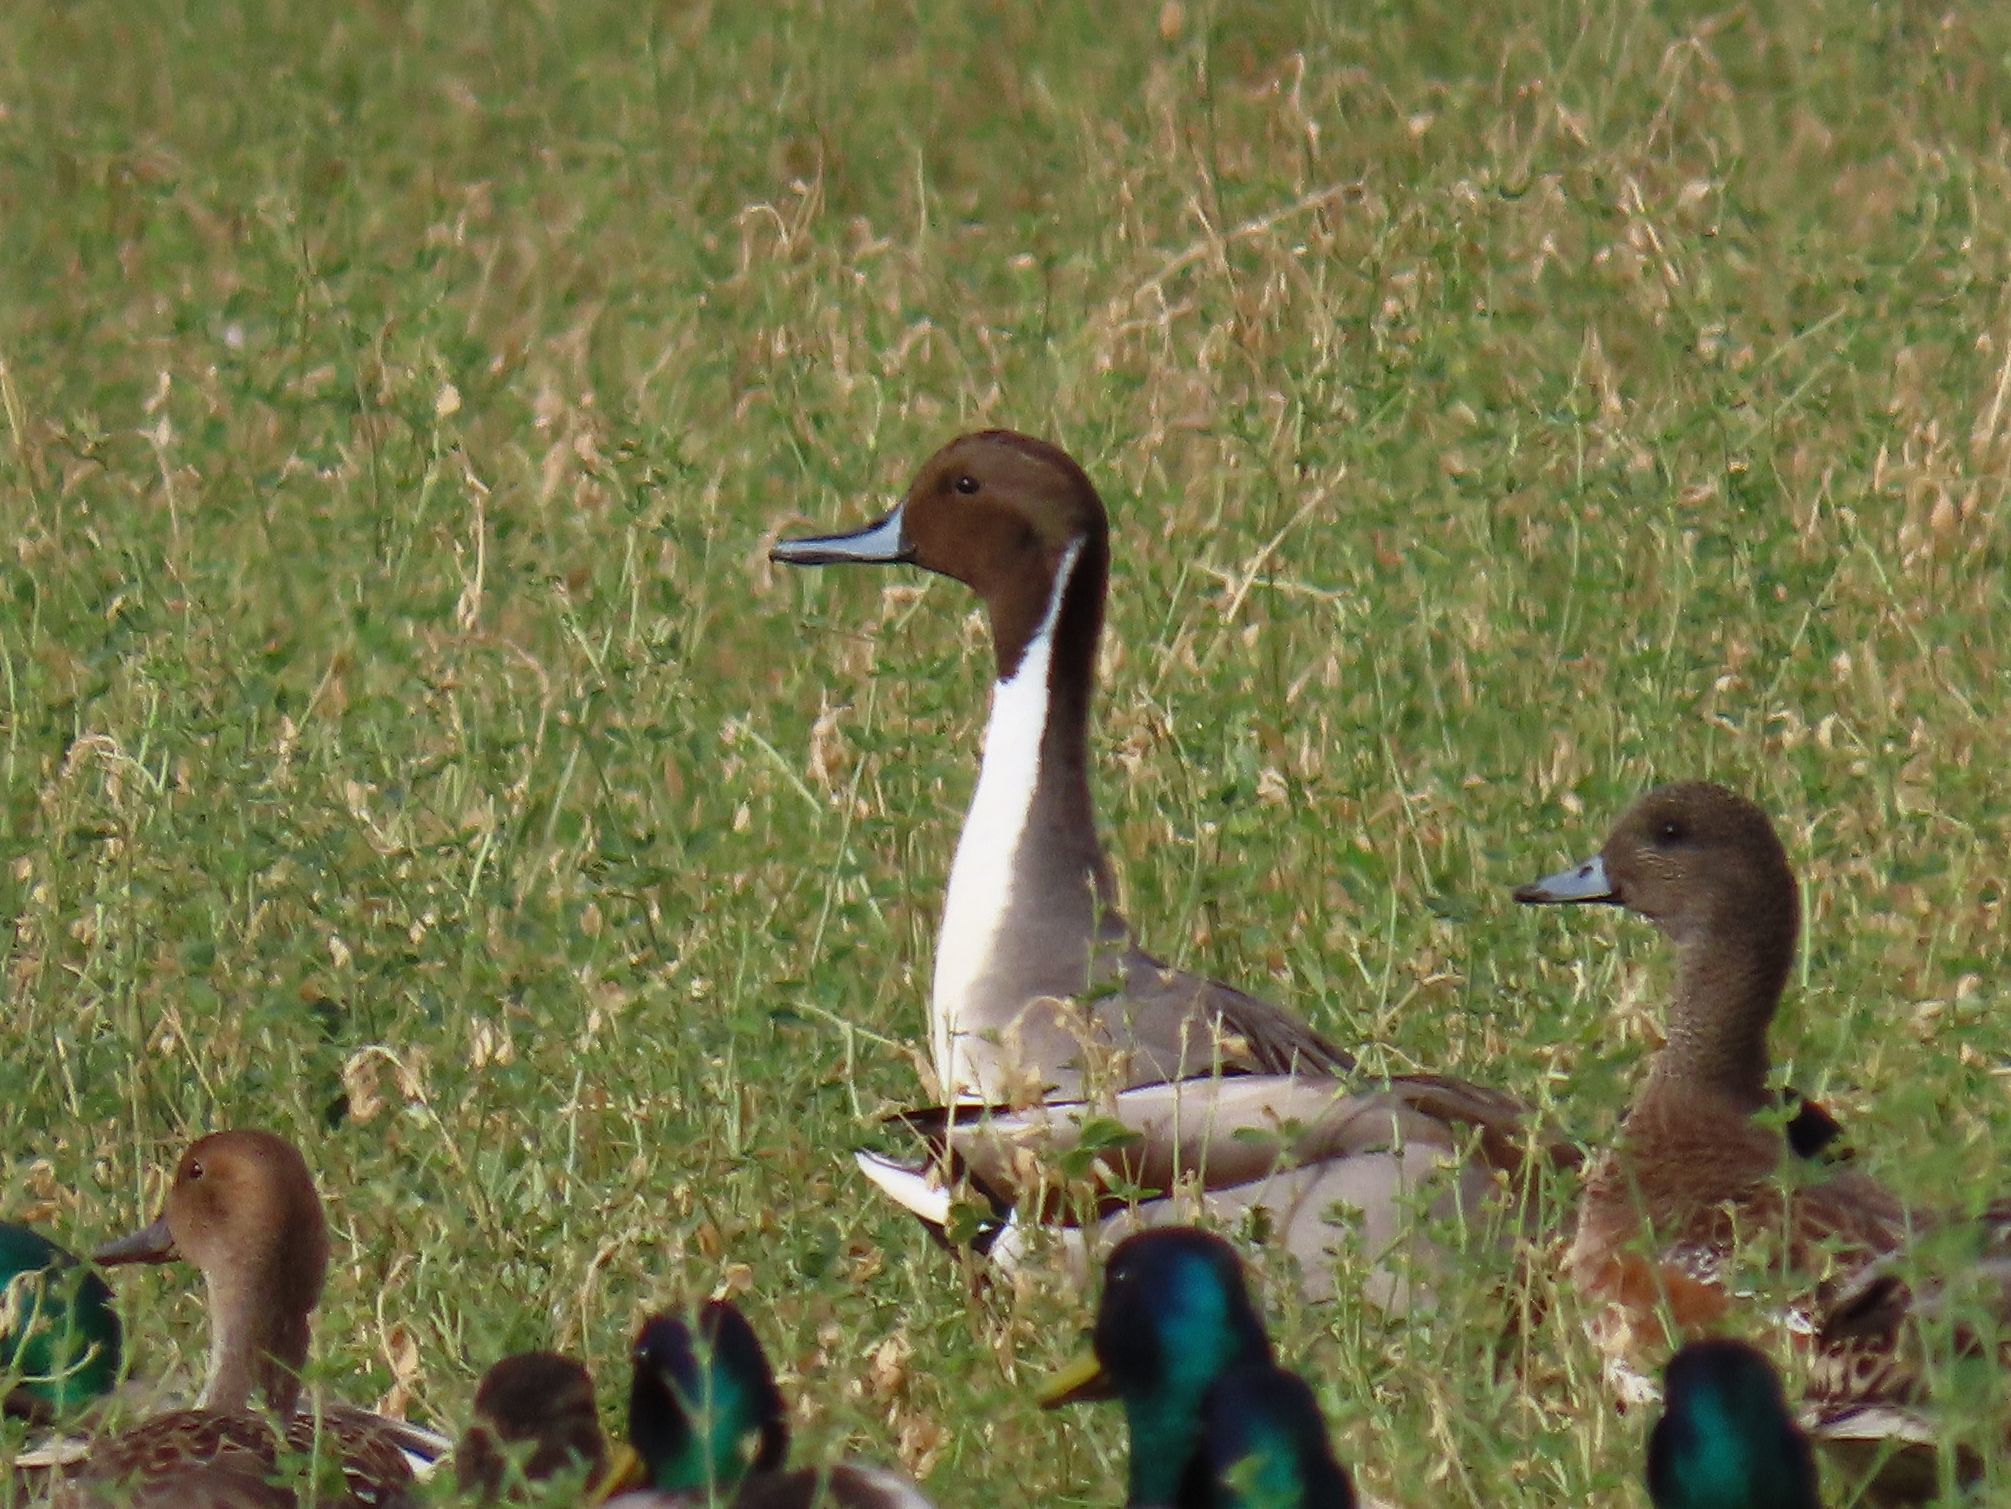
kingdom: Animalia
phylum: Chordata
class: Aves
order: Anseriformes
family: Anatidae
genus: Anas
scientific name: Anas acuta
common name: Northern pintail
